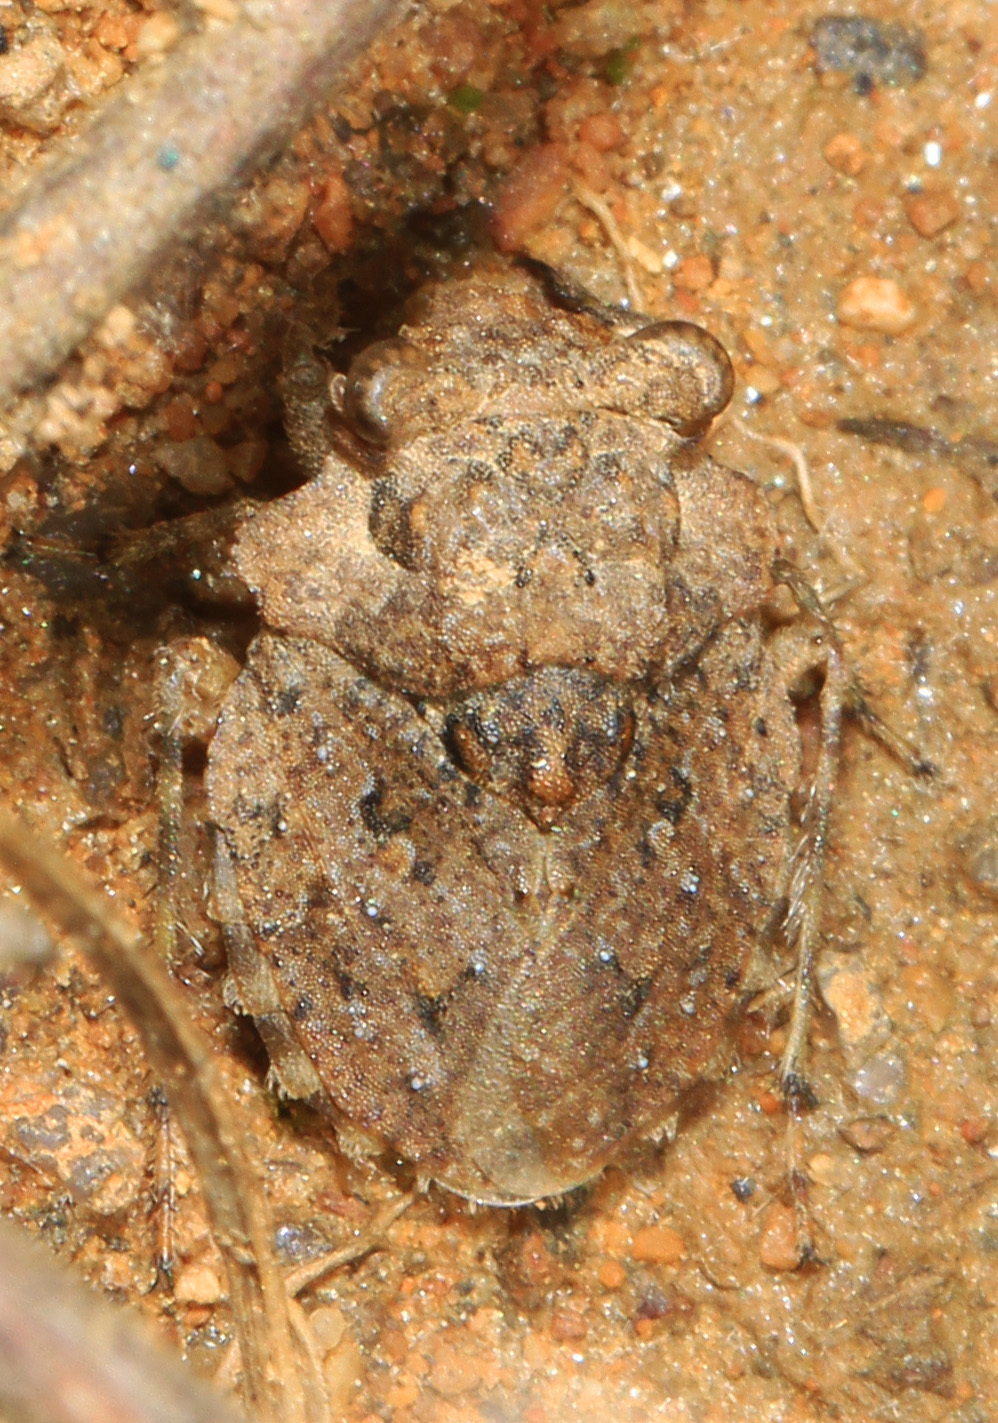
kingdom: Animalia
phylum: Arthropoda
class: Insecta
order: Hemiptera
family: Gelastocoridae
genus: Gelastocoris
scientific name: Gelastocoris oculatus
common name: Toad bug
